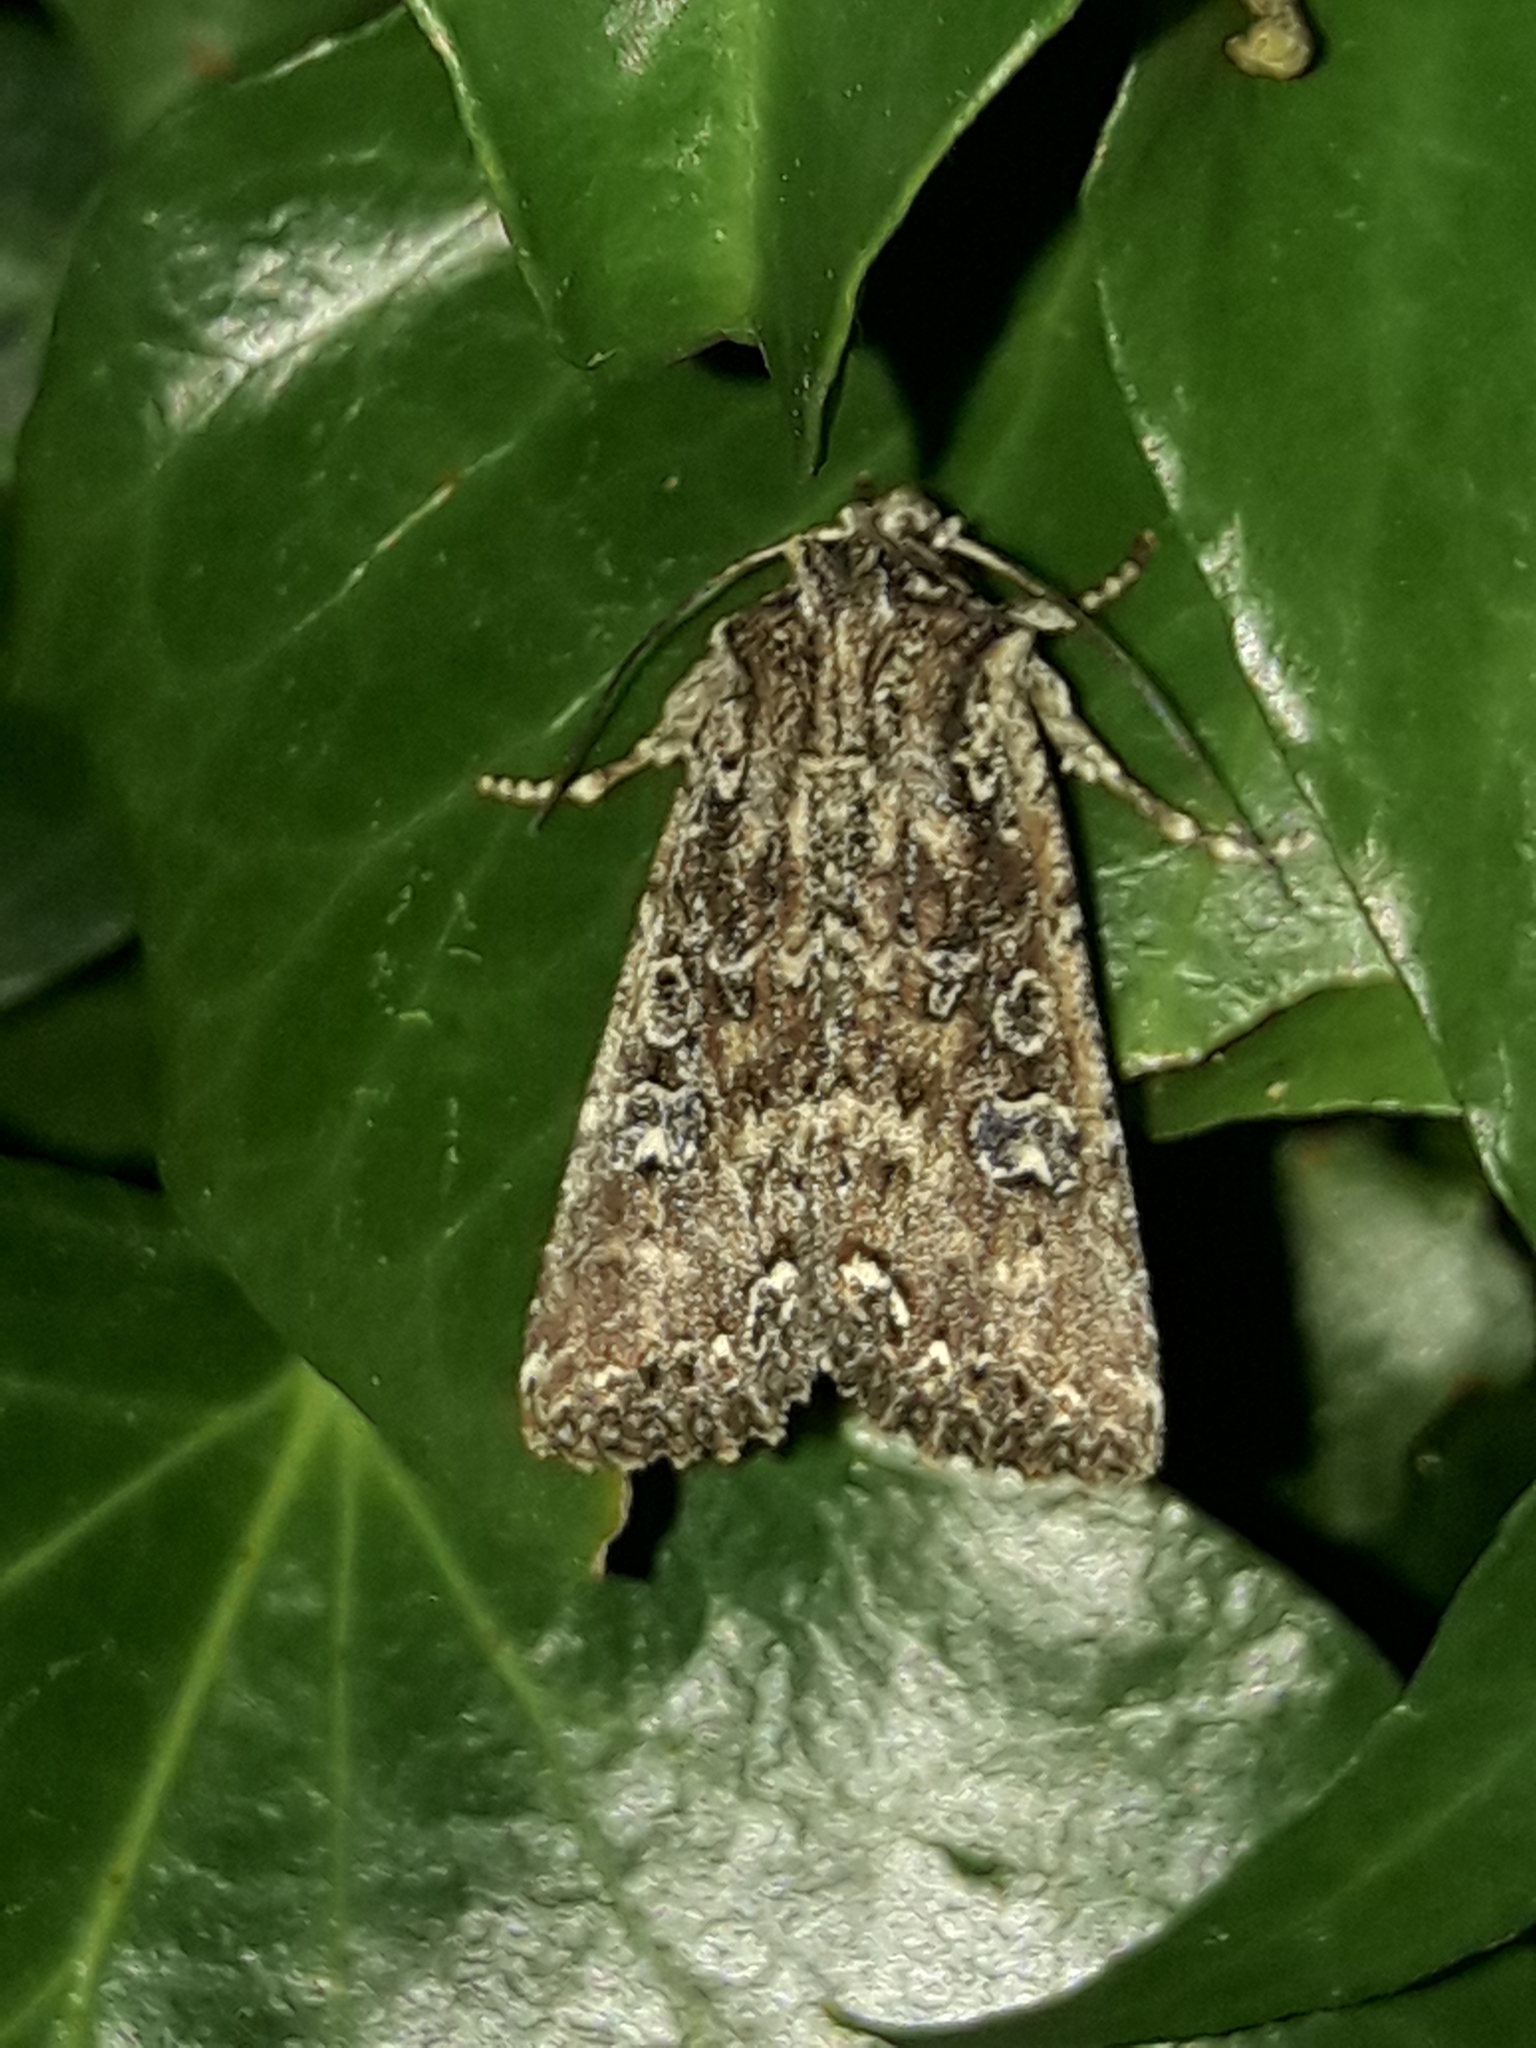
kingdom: Animalia
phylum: Arthropoda
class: Insecta
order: Lepidoptera
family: Noctuidae
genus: Ichneutica
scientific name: Ichneutica morosa
